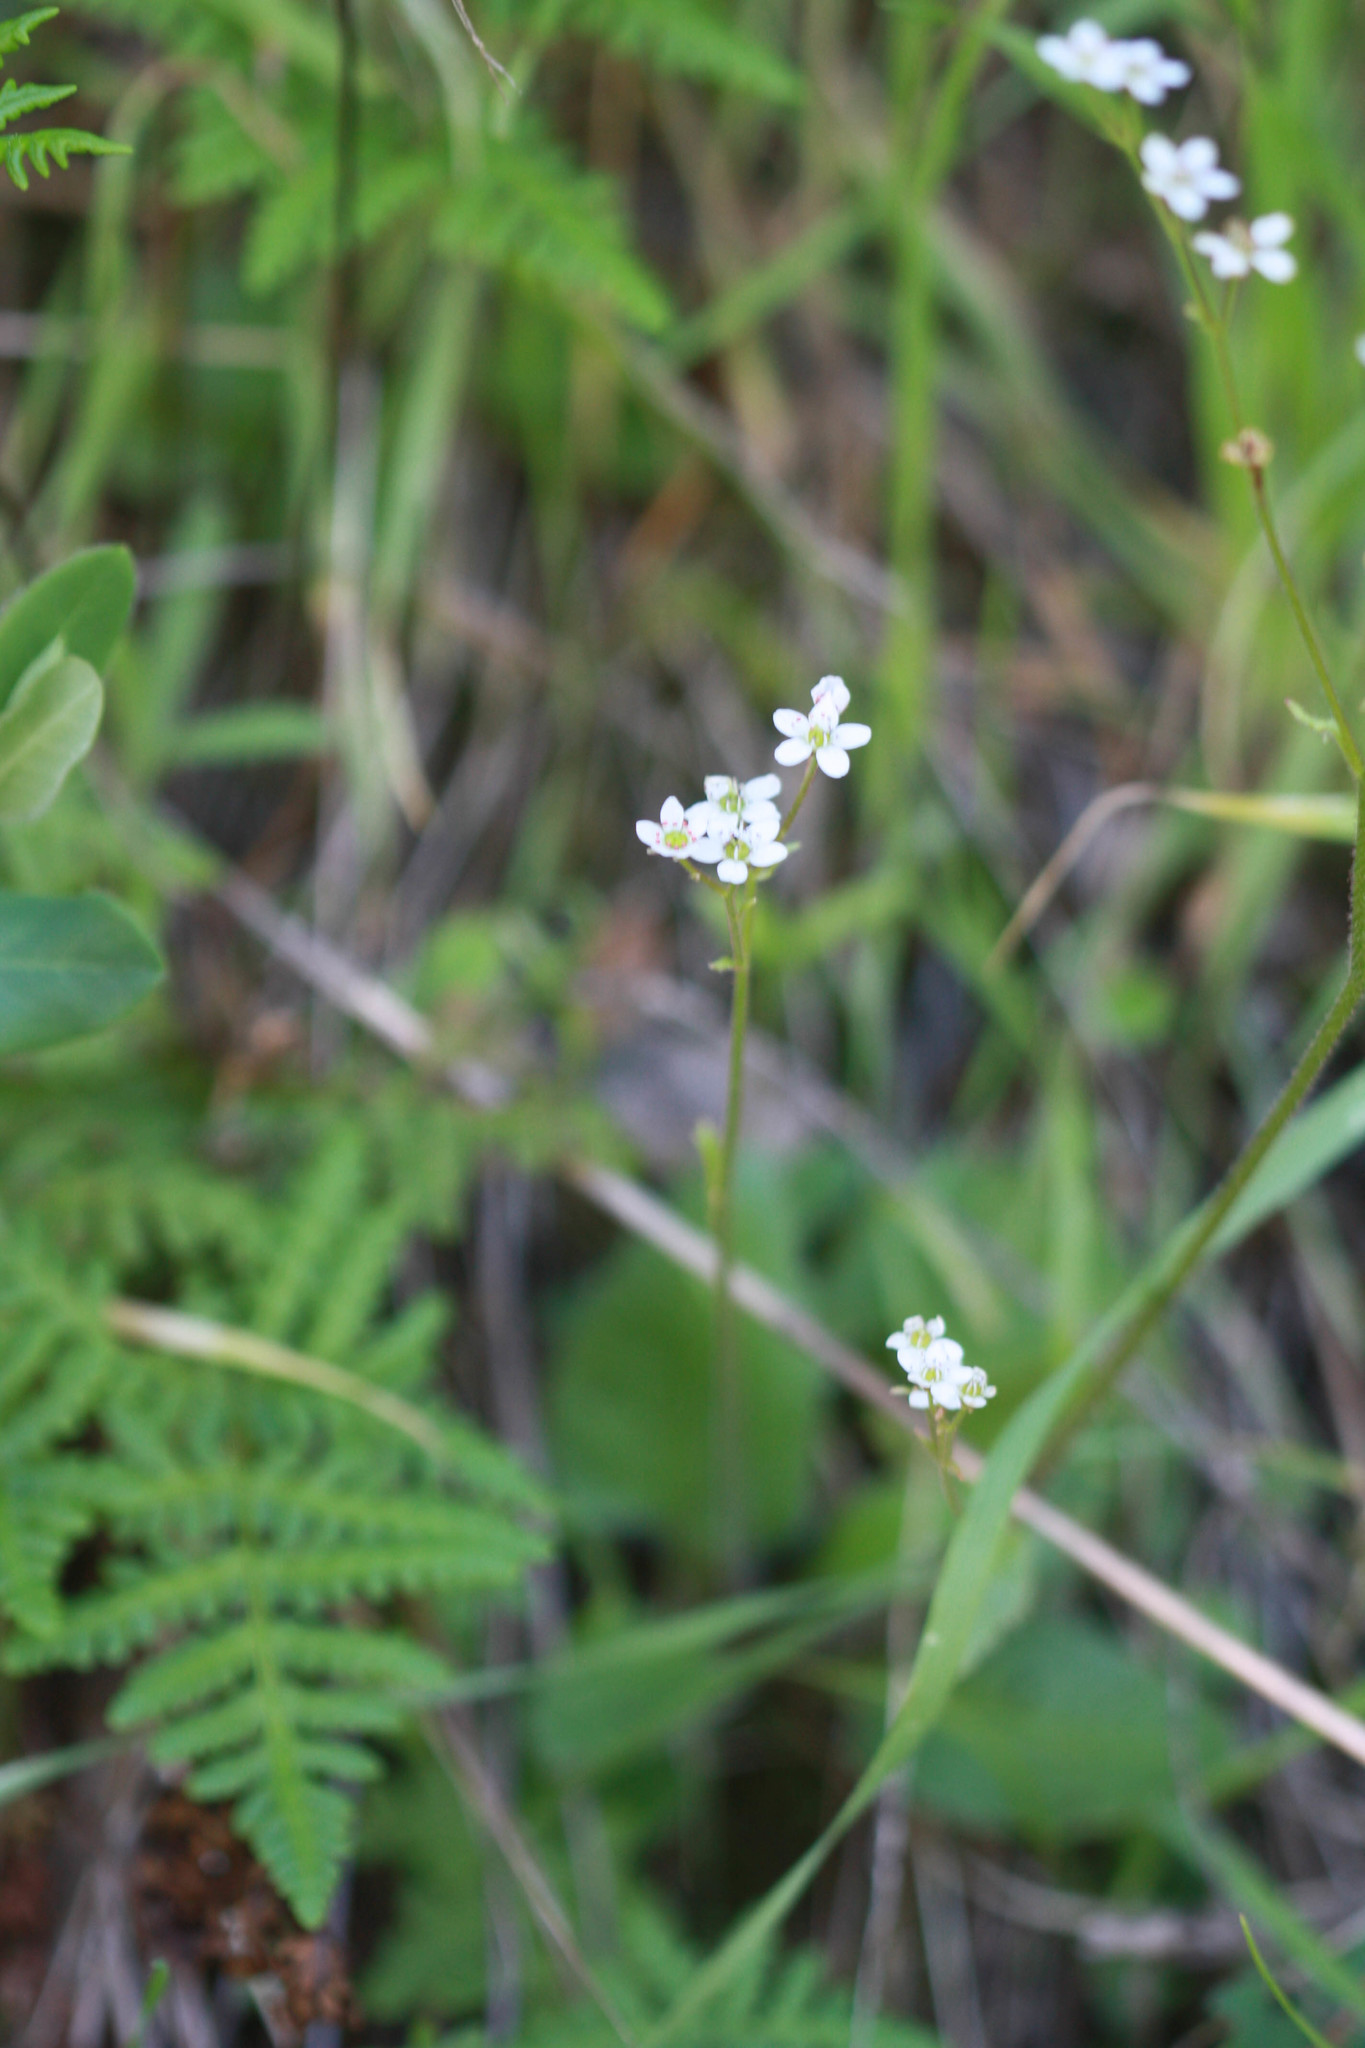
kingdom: Plantae
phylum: Tracheophyta
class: Magnoliopsida
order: Saxifragales
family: Saxifragaceae
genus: Micranthes
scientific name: Micranthes californica
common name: California saxifrage
